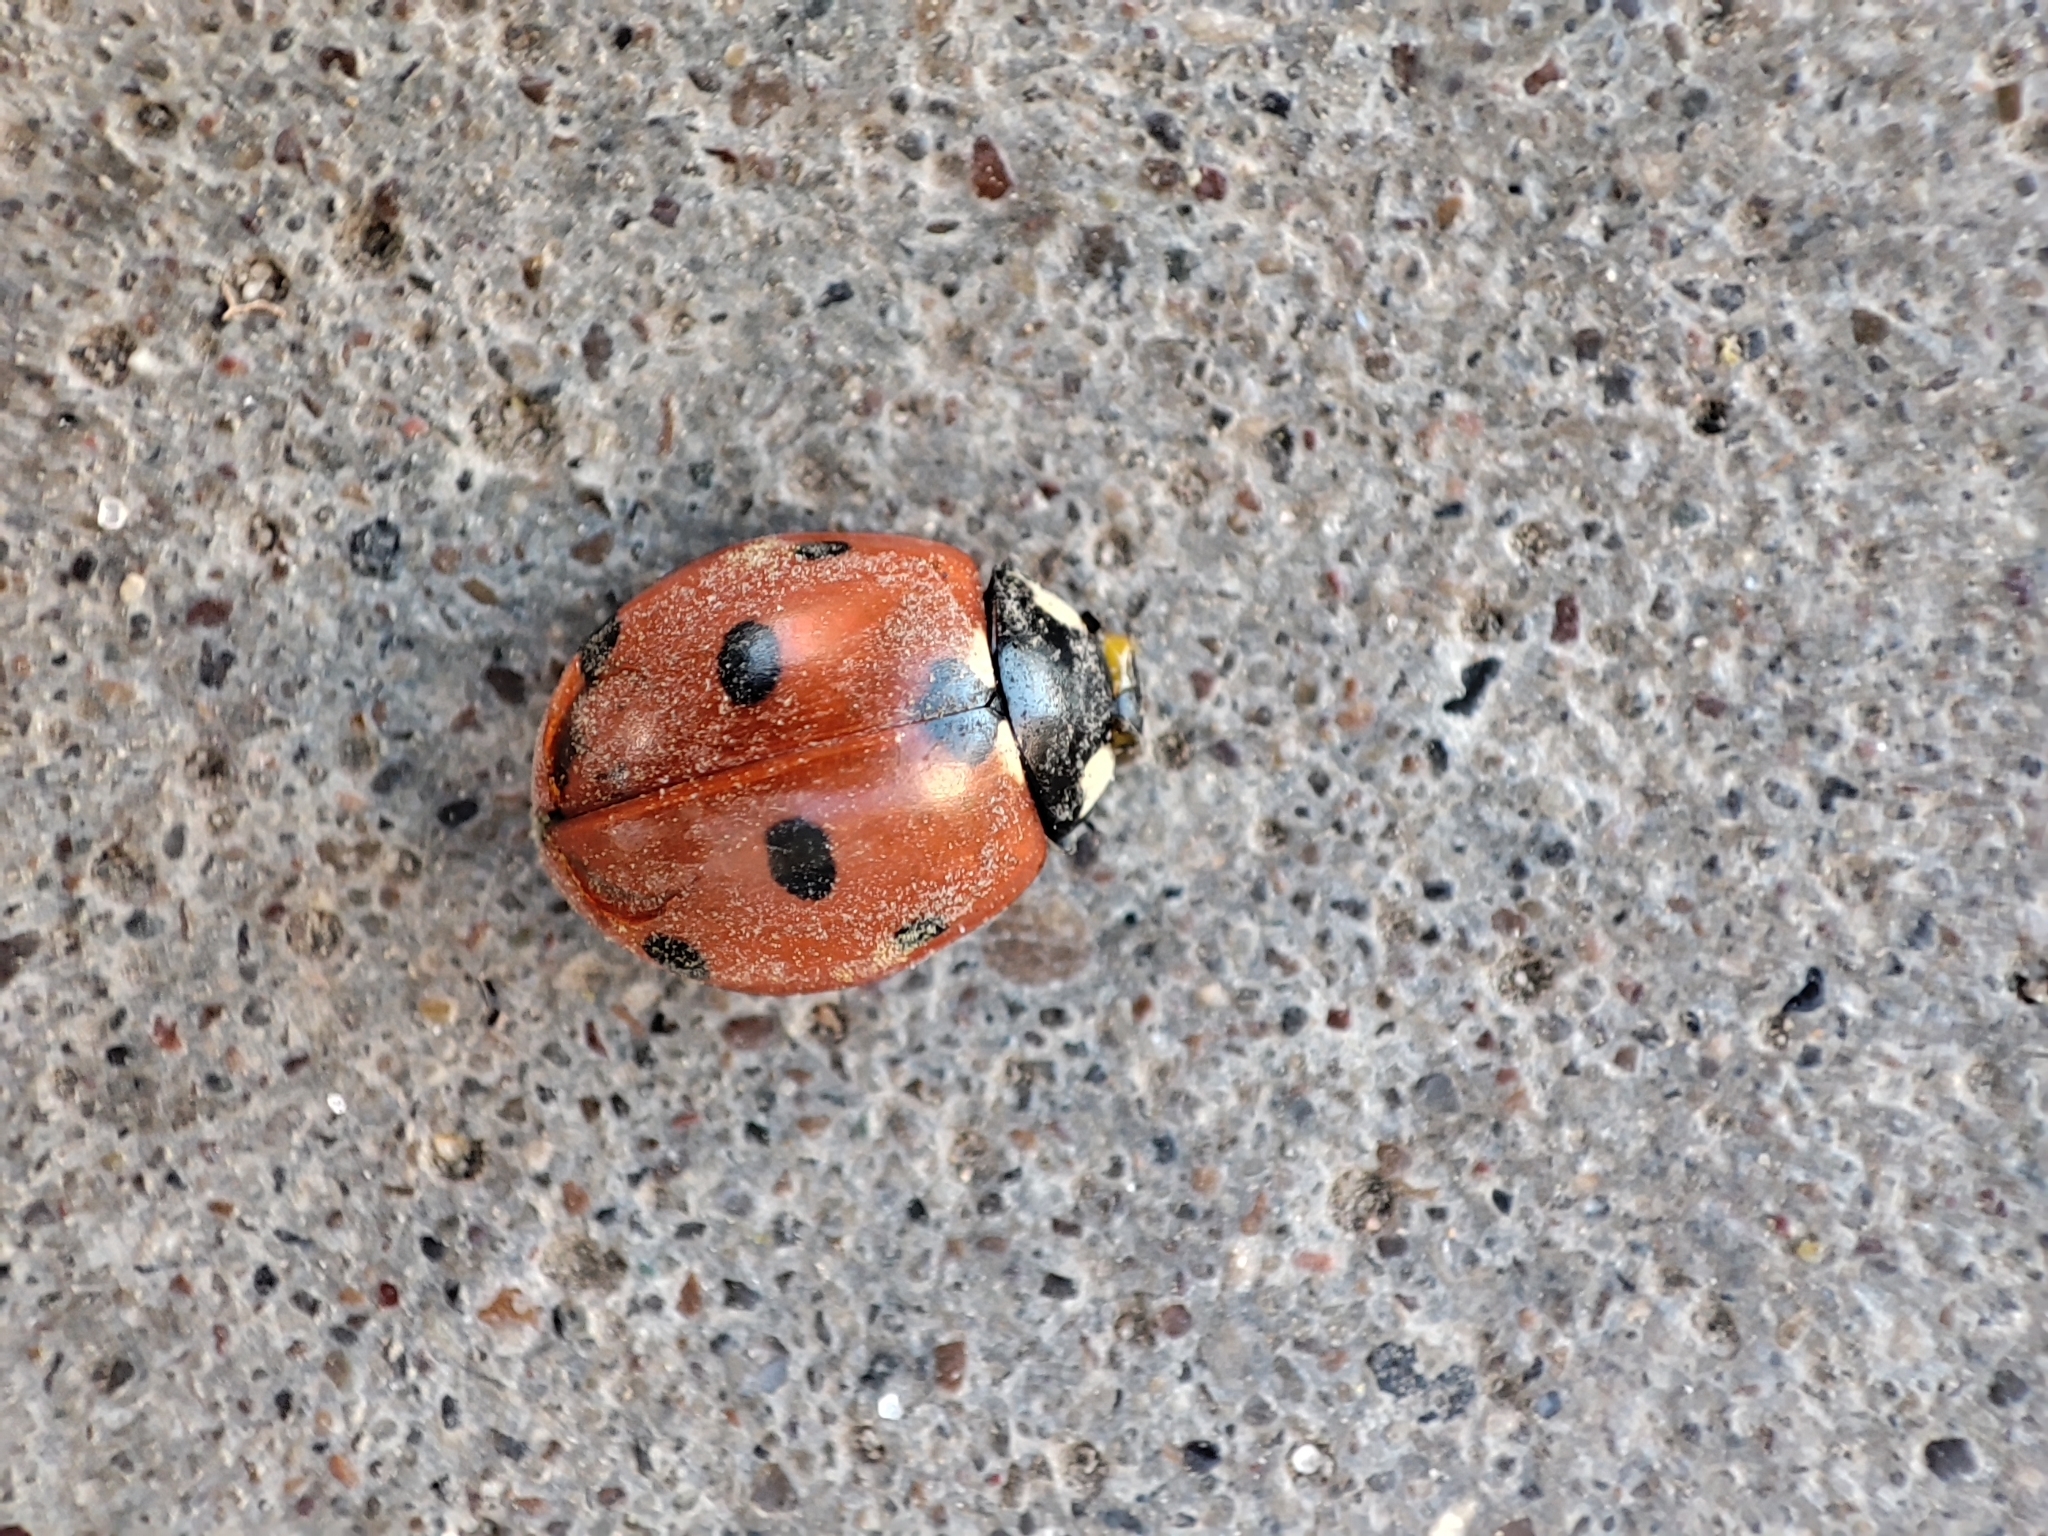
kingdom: Animalia
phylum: Arthropoda
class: Insecta
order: Coleoptera
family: Coccinellidae
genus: Coccinella
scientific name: Coccinella septempunctata
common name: Sevenspotted lady beetle
